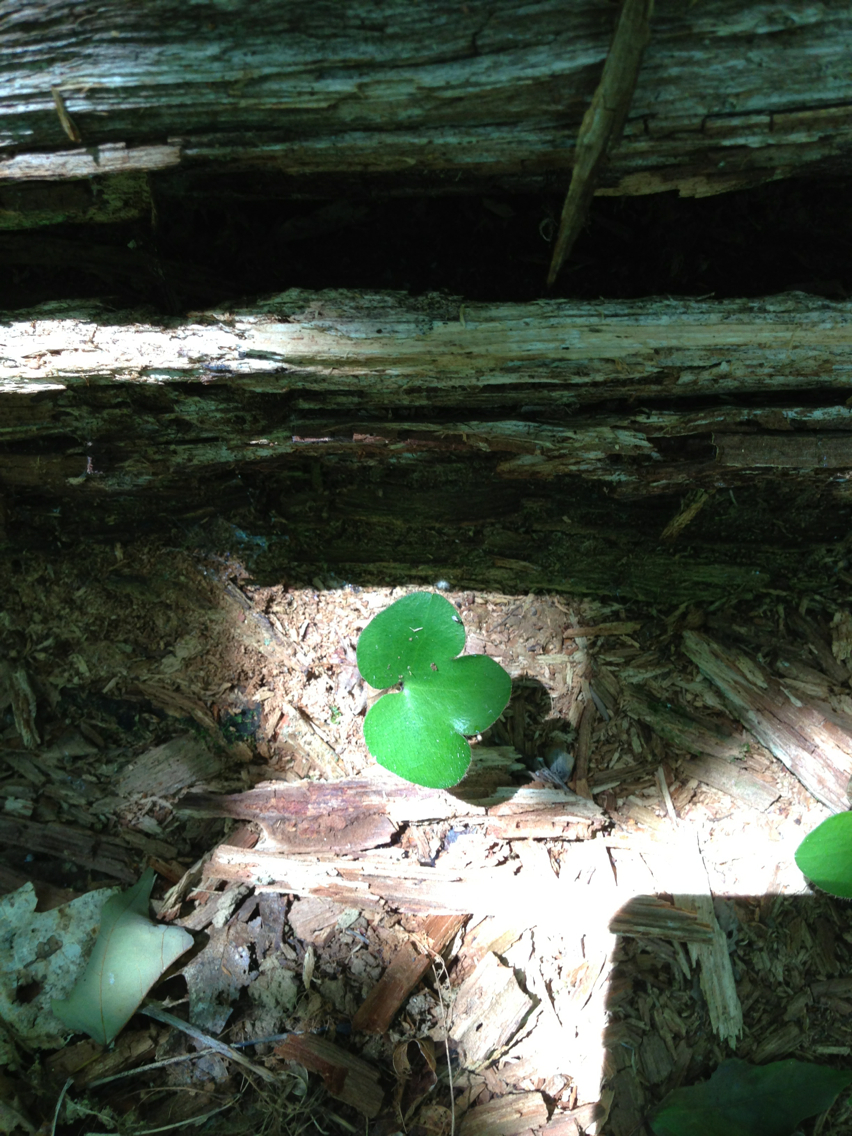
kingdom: Plantae
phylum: Tracheophyta
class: Magnoliopsida
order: Ranunculales
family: Ranunculaceae
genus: Hepatica
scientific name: Hepatica americana
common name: American hepatica
